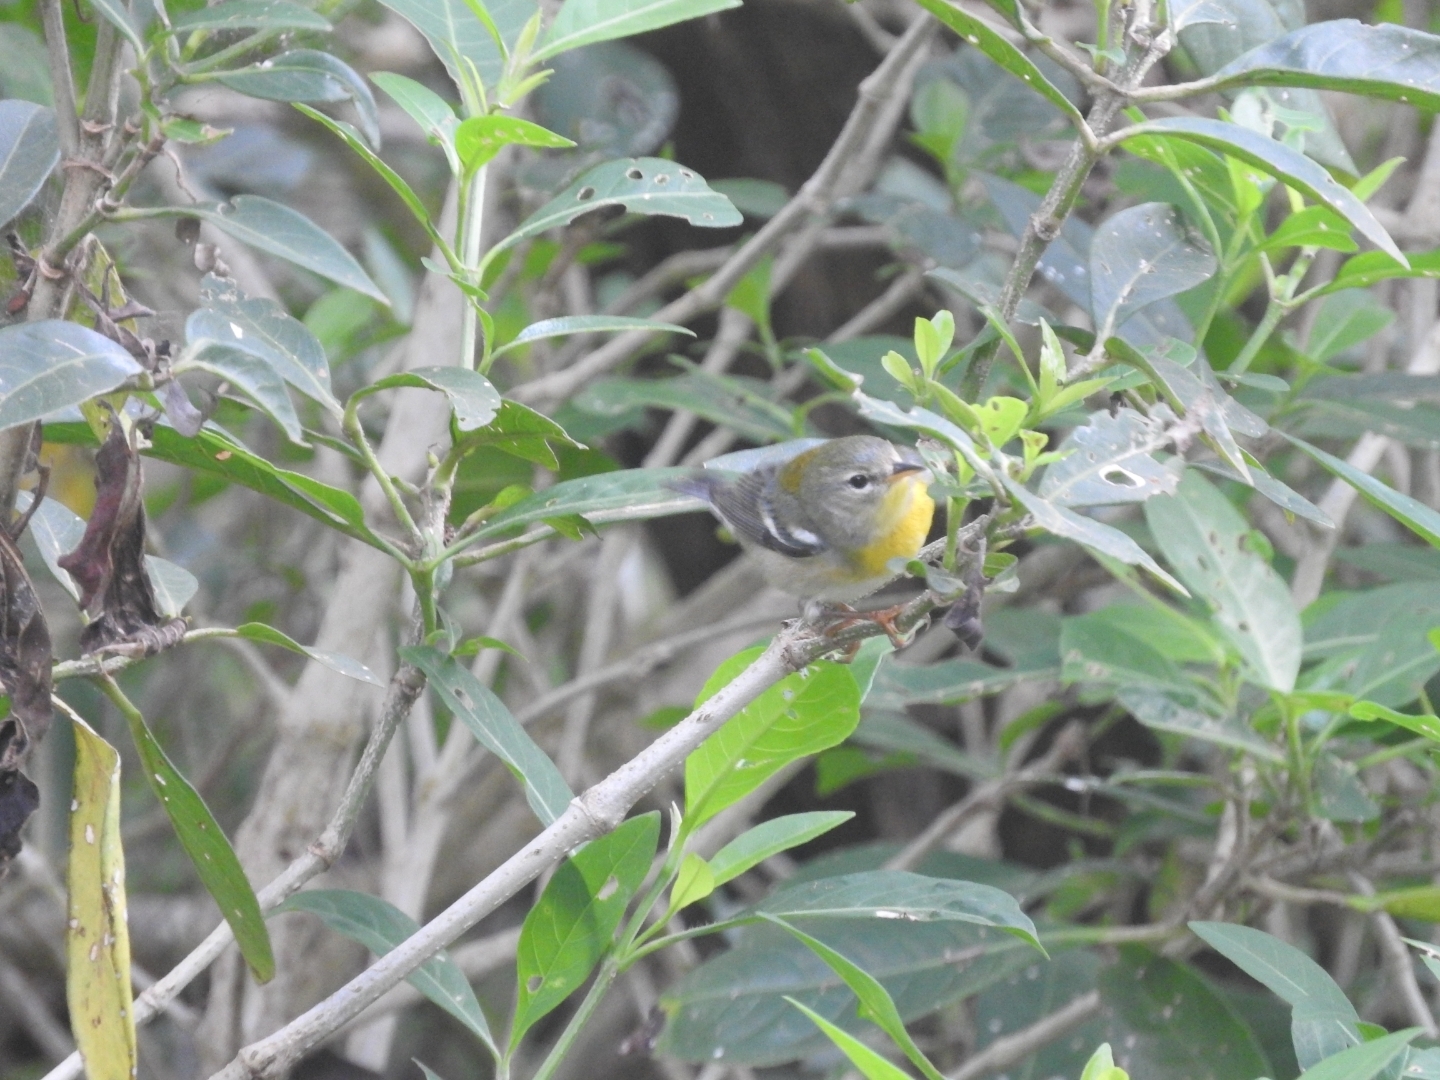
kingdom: Animalia
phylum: Chordata
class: Aves
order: Passeriformes
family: Parulidae
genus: Setophaga
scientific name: Setophaga americana
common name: Northern parula
